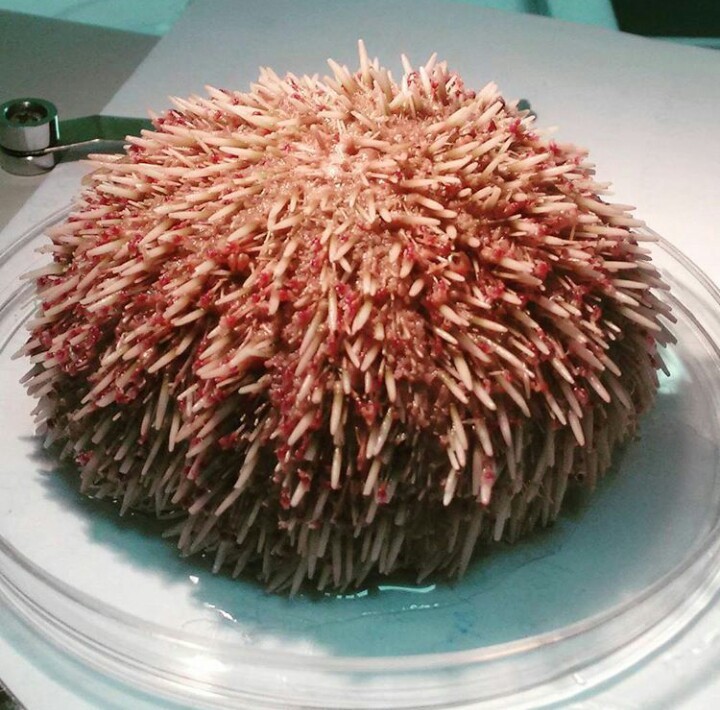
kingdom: Animalia
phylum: Echinodermata
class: Echinoidea
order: Camarodonta
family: Toxopneustidae
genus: Toxopneustes
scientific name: Toxopneustes roseus
